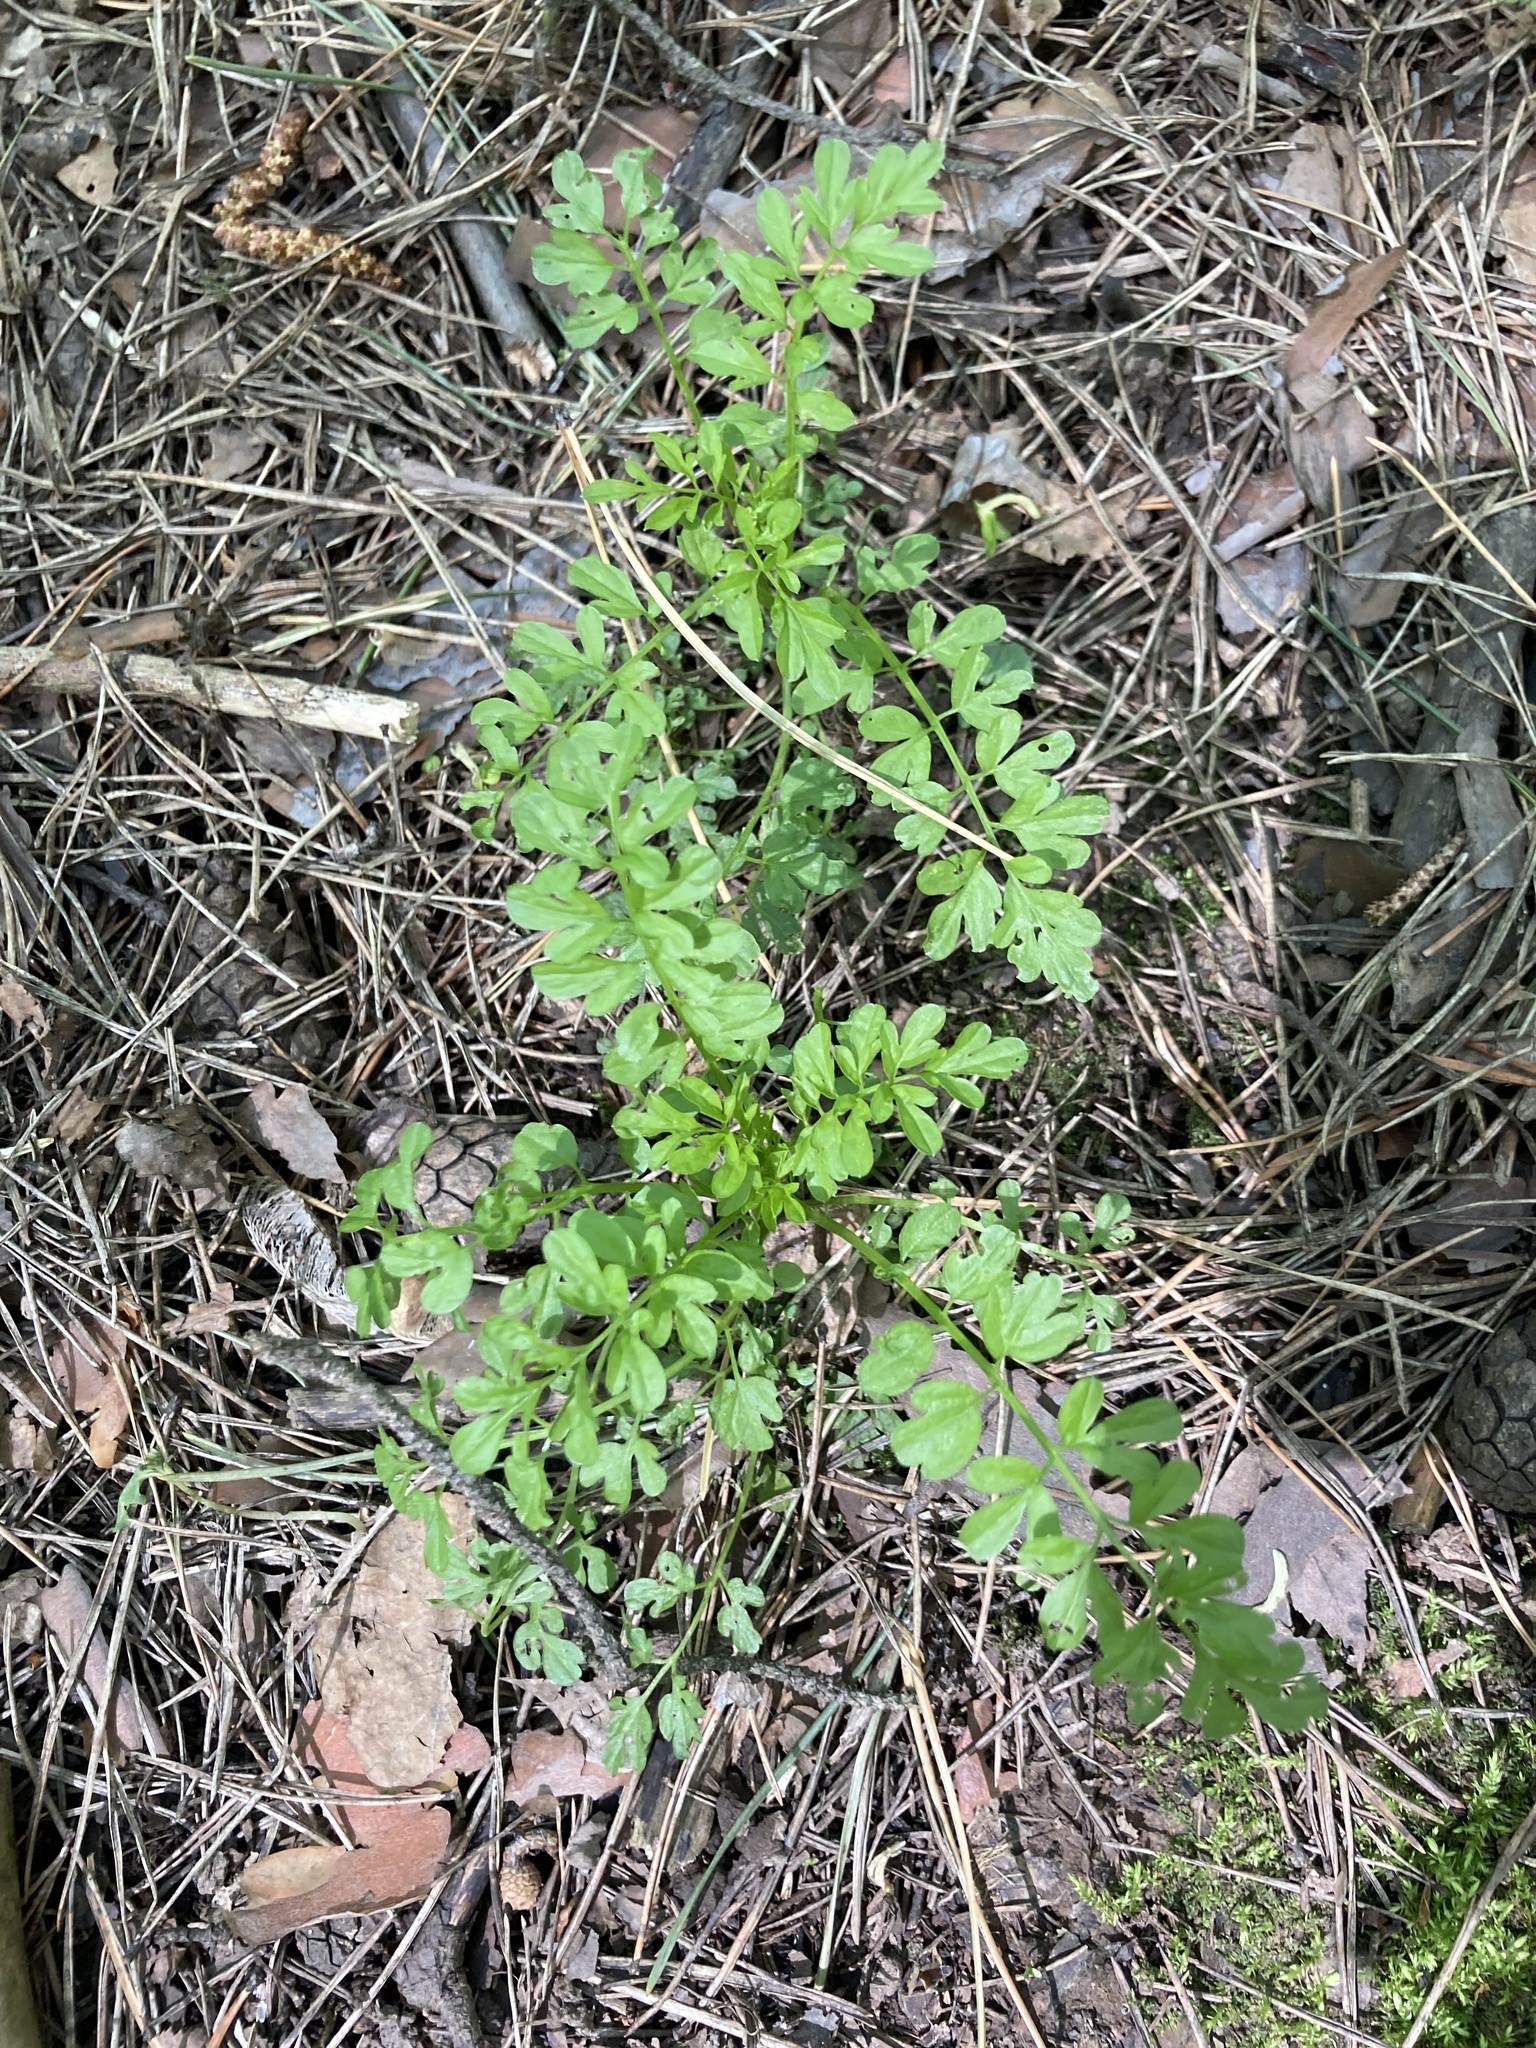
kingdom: Plantae
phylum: Tracheophyta
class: Magnoliopsida
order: Brassicales
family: Brassicaceae
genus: Cardamine
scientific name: Cardamine impatiens
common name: Narrow-leaved bitter-cress
